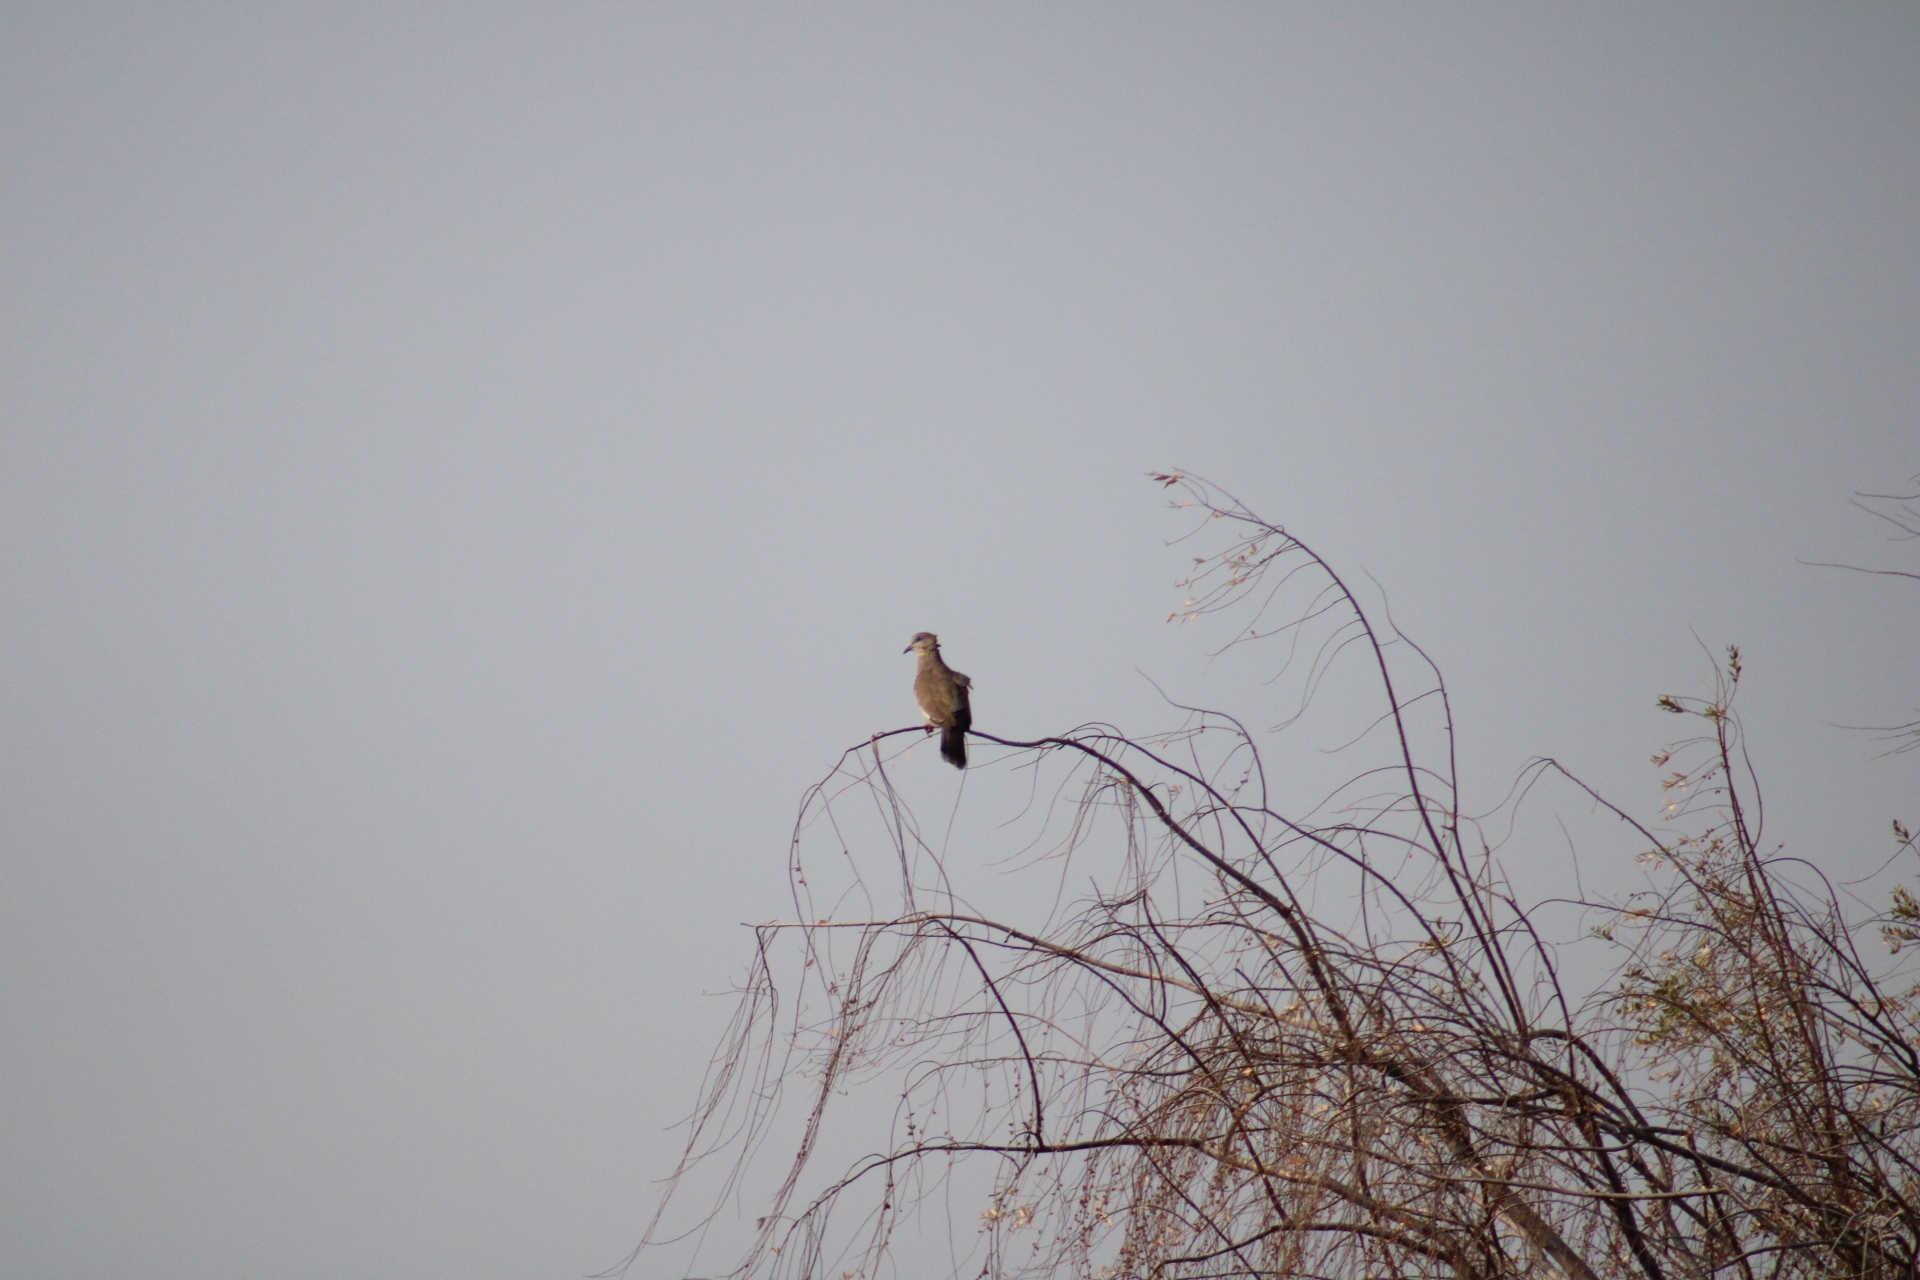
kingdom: Animalia
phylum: Chordata
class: Aves
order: Columbiformes
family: Columbidae
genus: Zenaida
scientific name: Zenaida meloda
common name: West peruvian dove
